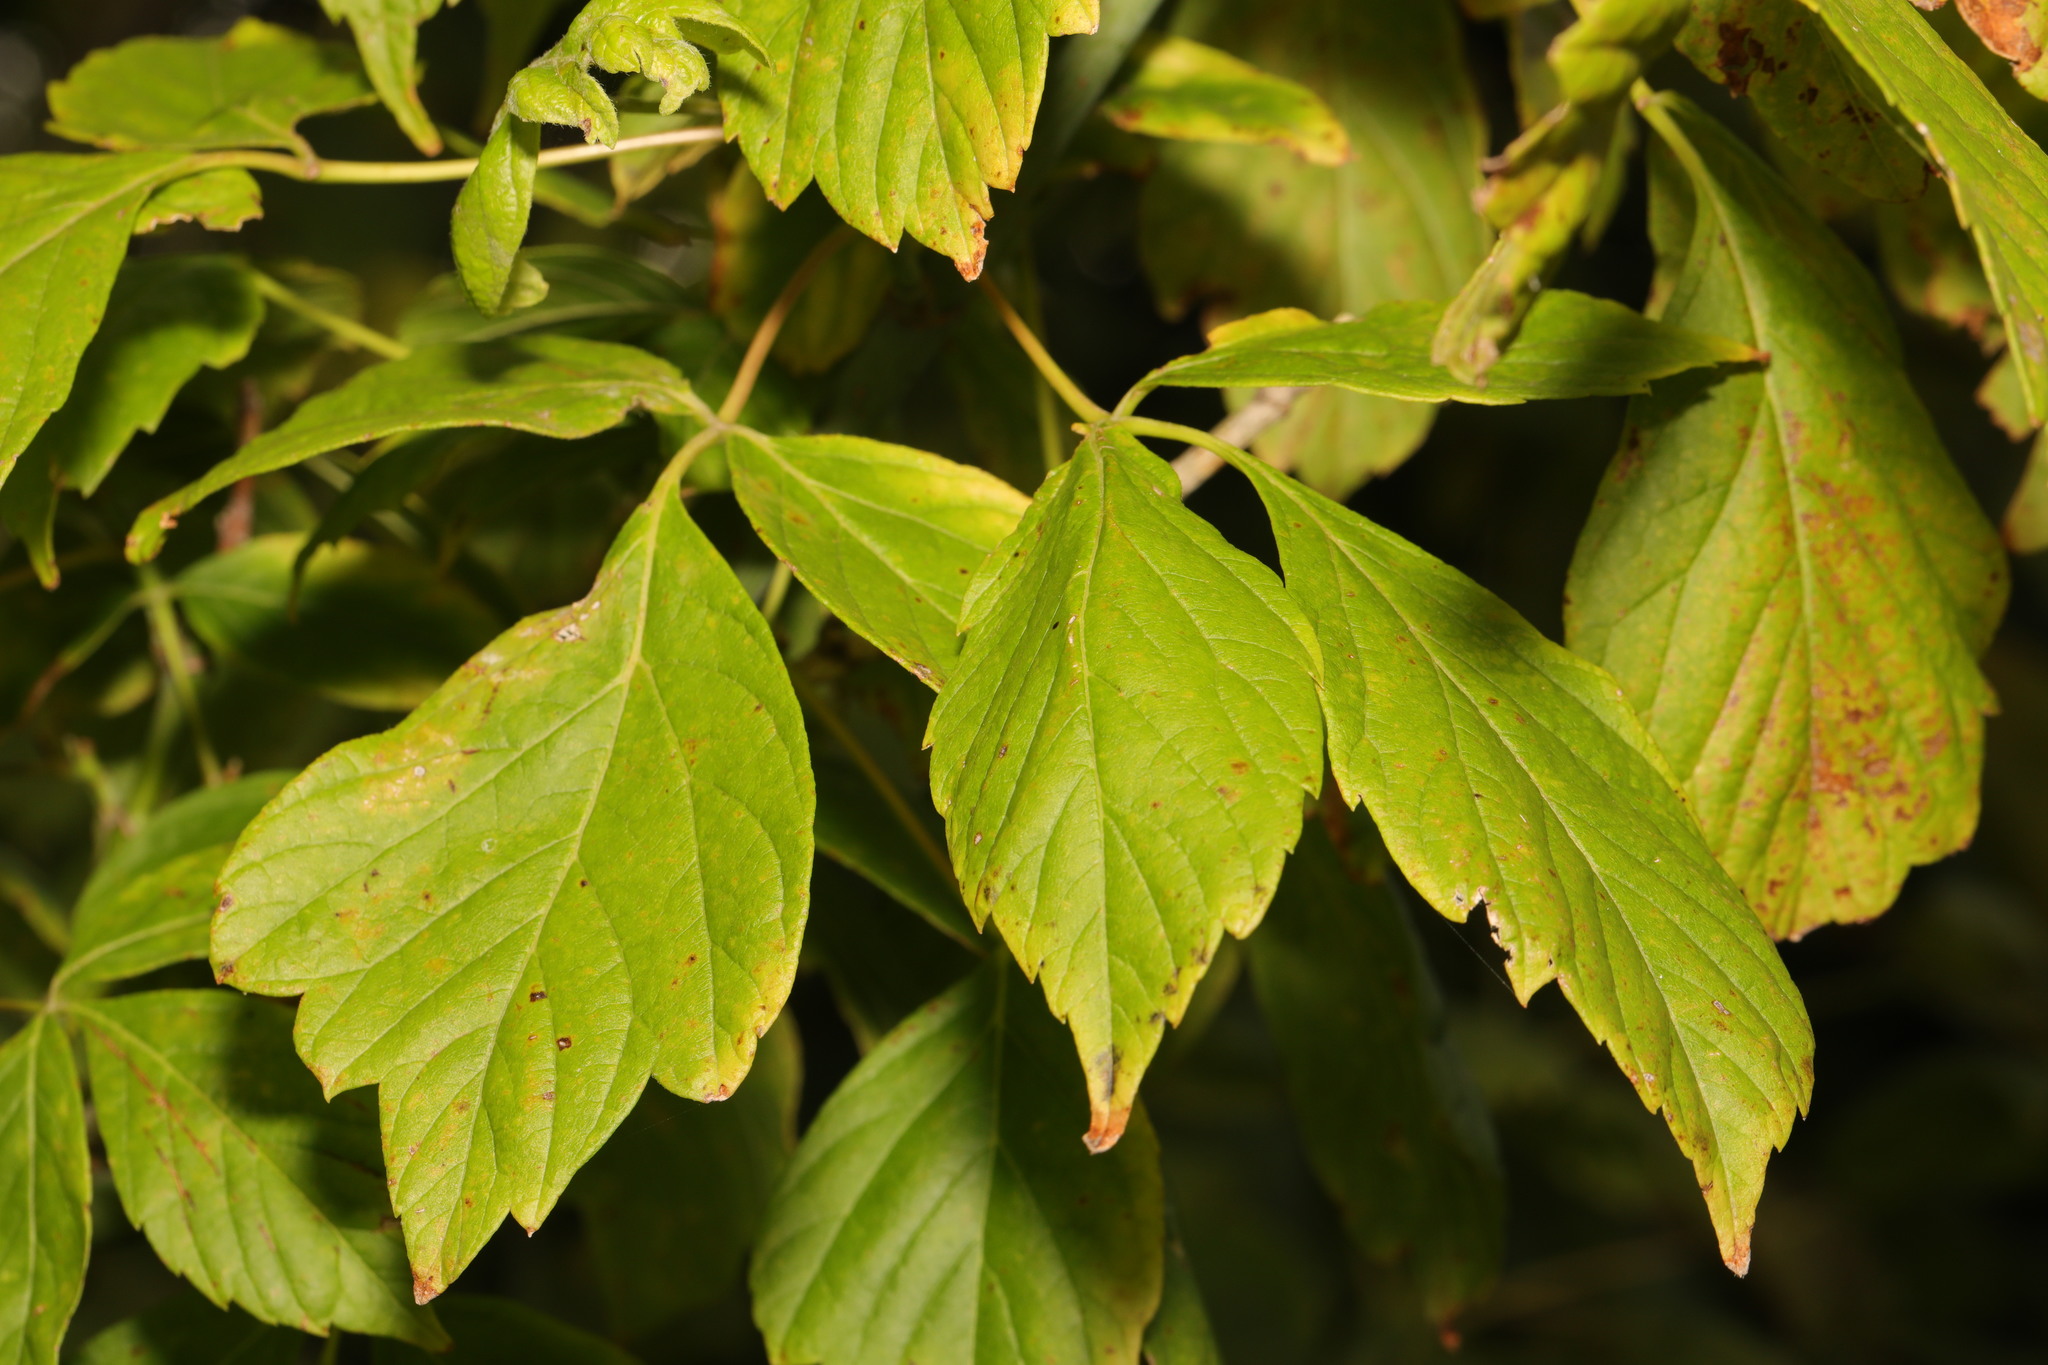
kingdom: Plantae
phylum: Tracheophyta
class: Magnoliopsida
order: Sapindales
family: Sapindaceae
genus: Acer
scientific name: Acer negundo
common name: Ashleaf maple
